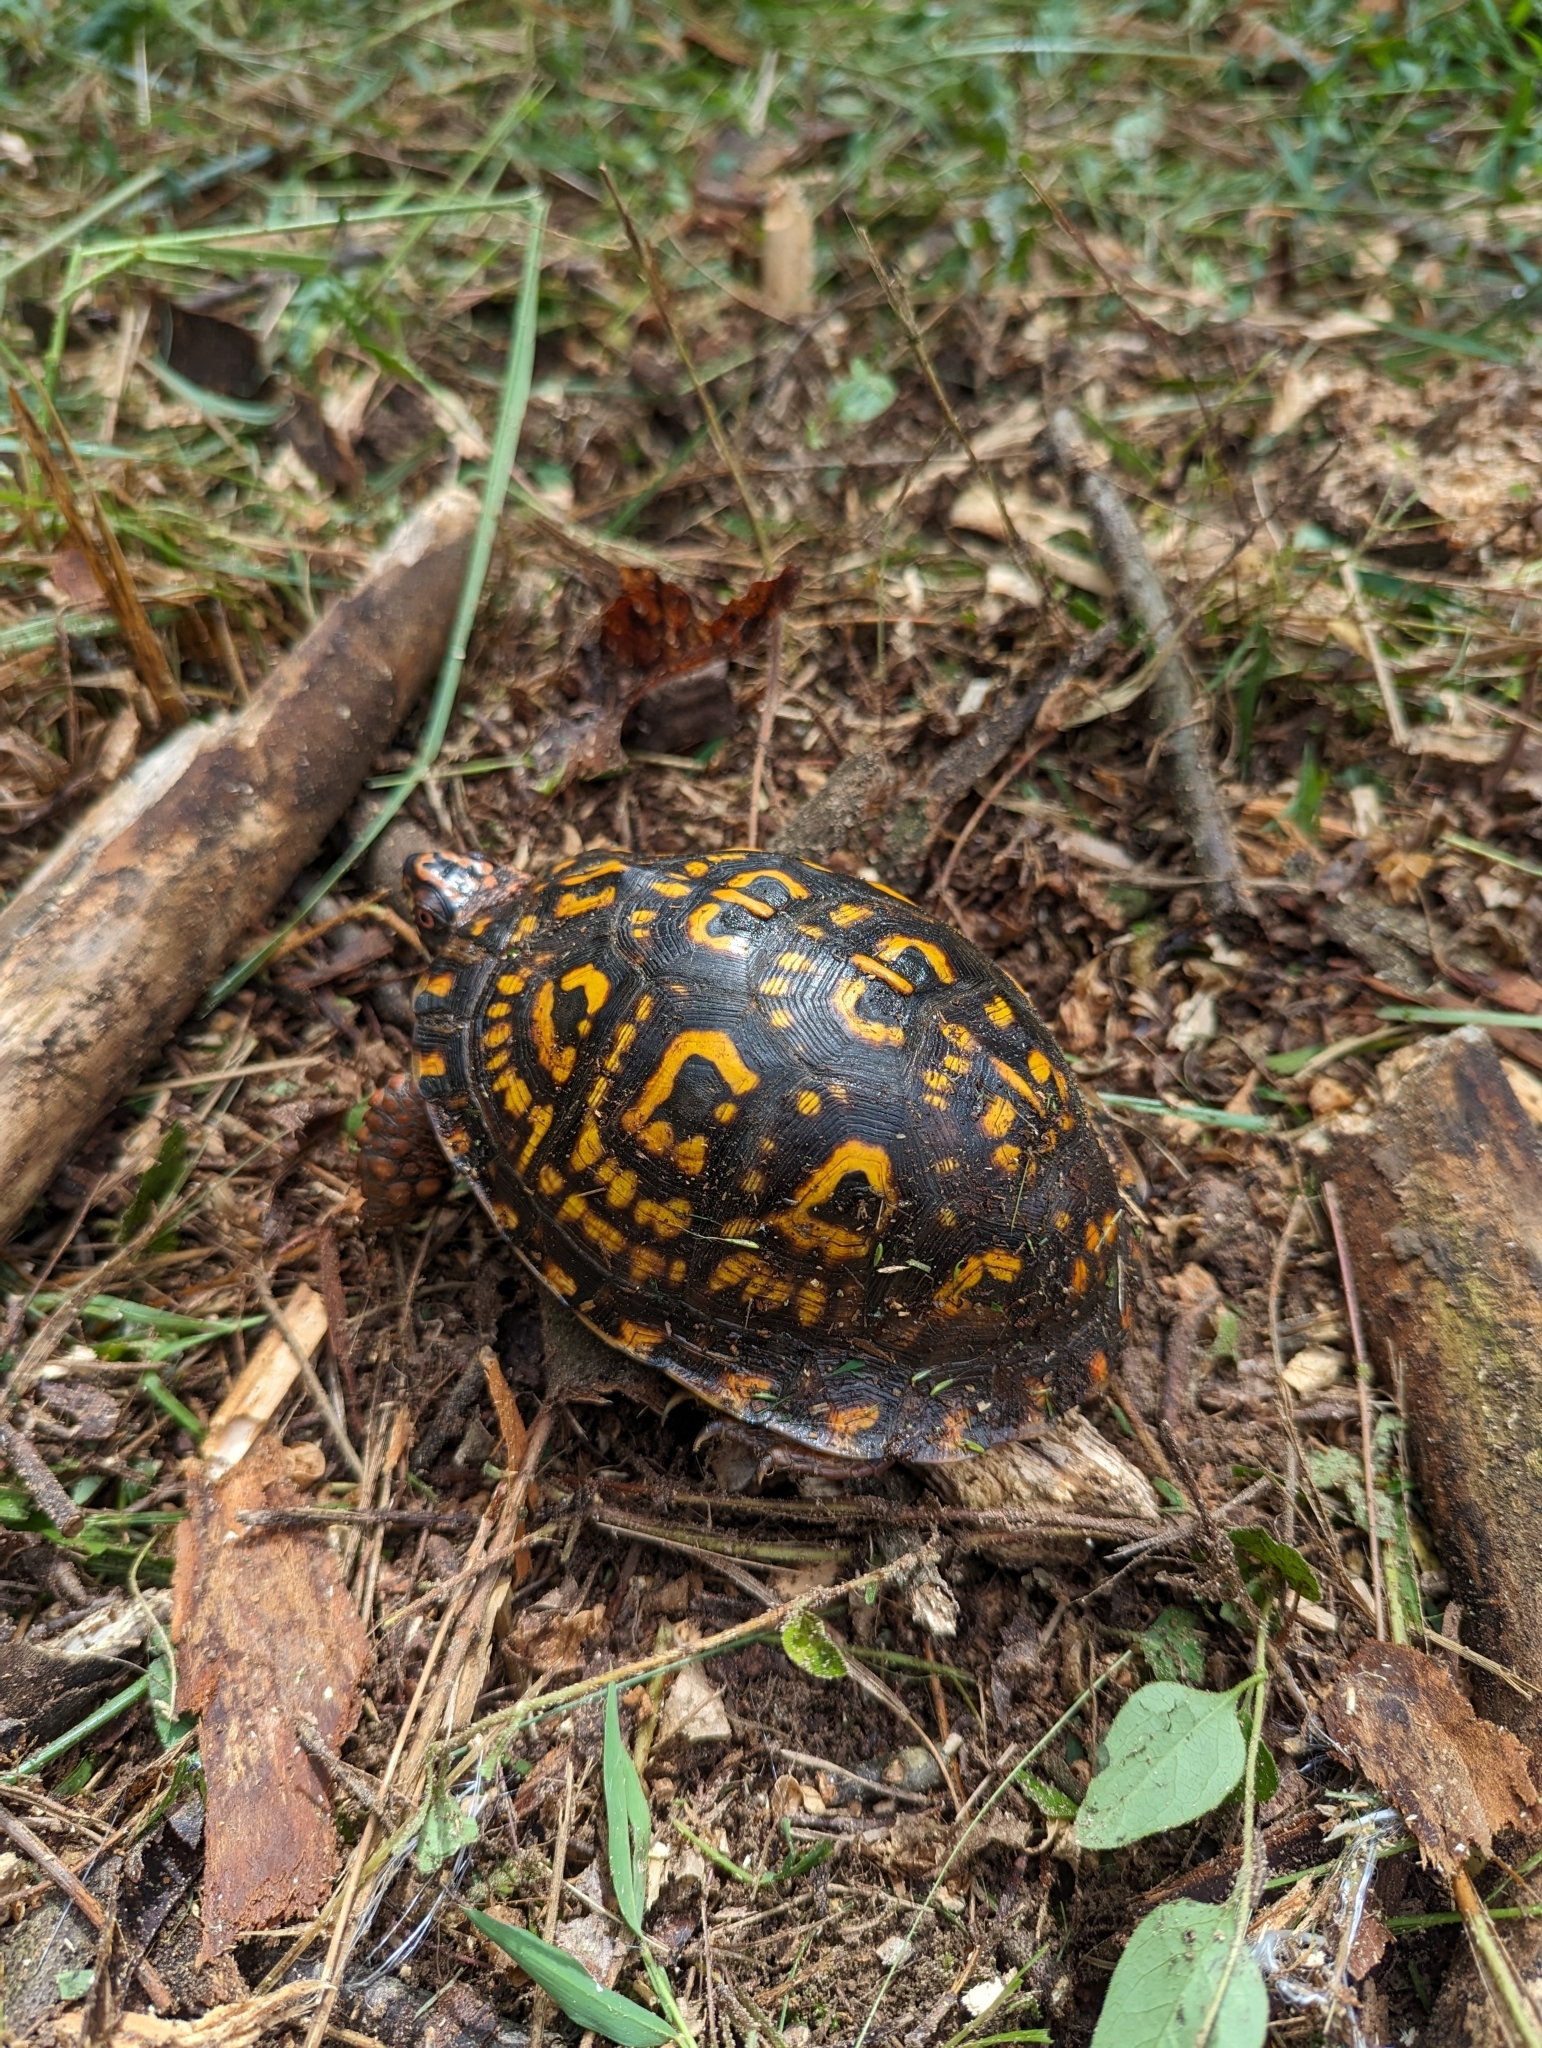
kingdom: Animalia
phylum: Chordata
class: Testudines
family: Emydidae
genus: Terrapene
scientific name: Terrapene carolina
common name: Common box turtle
